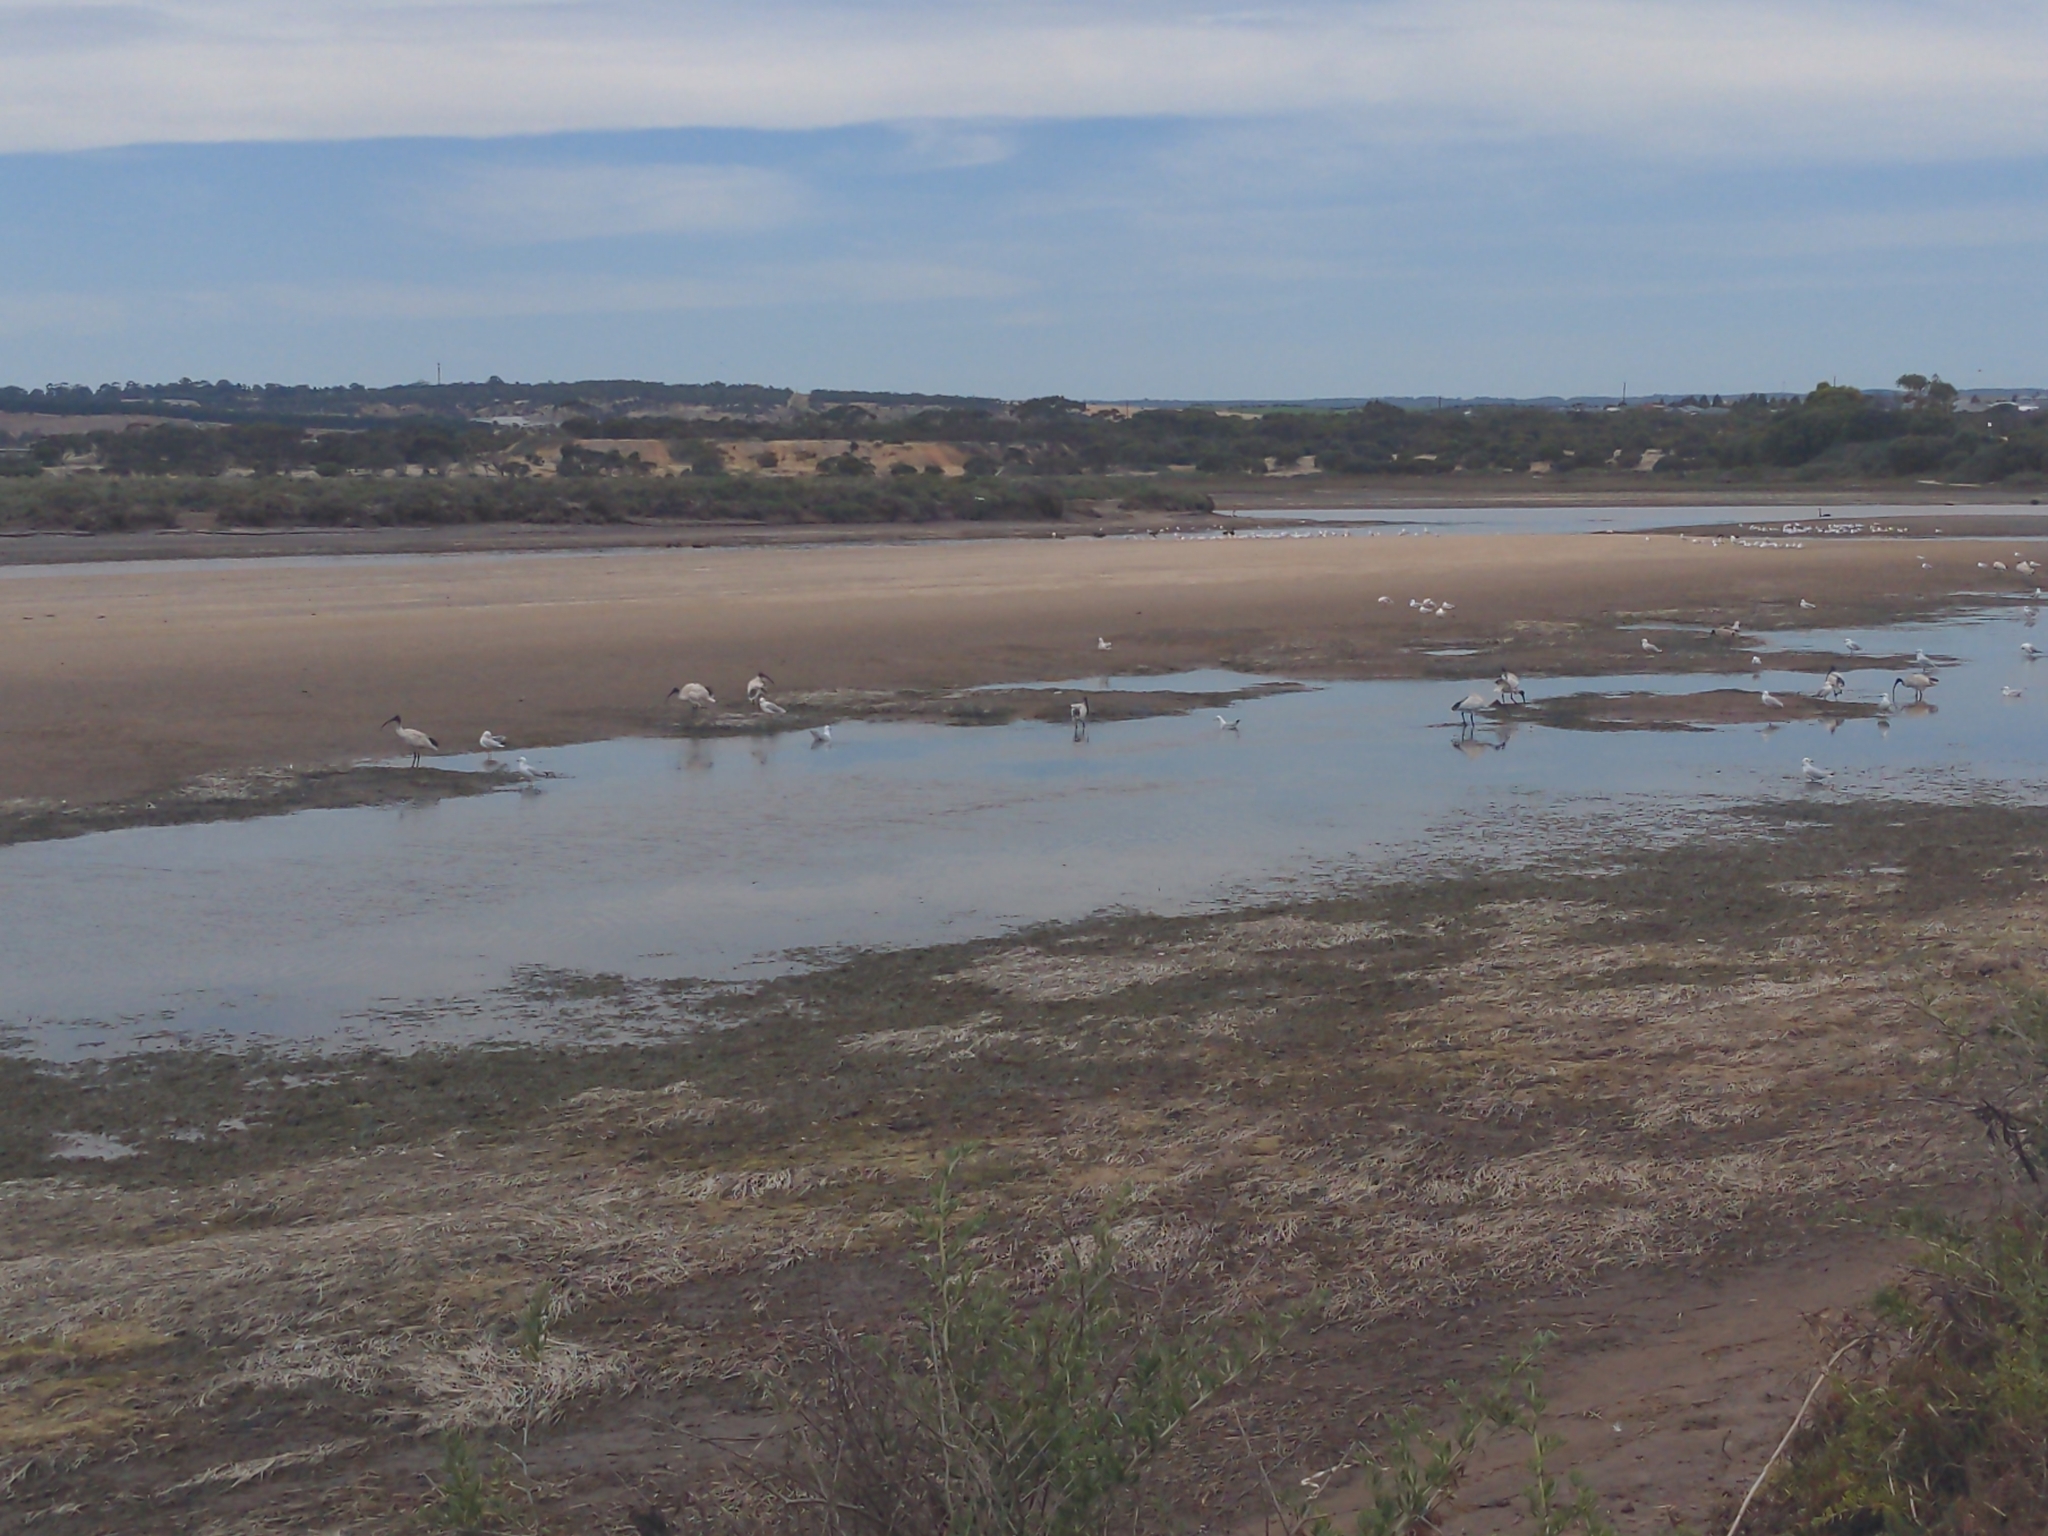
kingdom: Animalia
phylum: Chordata
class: Aves
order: Pelecaniformes
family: Threskiornithidae
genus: Threskiornis
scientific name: Threskiornis molucca
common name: Australian white ibis
